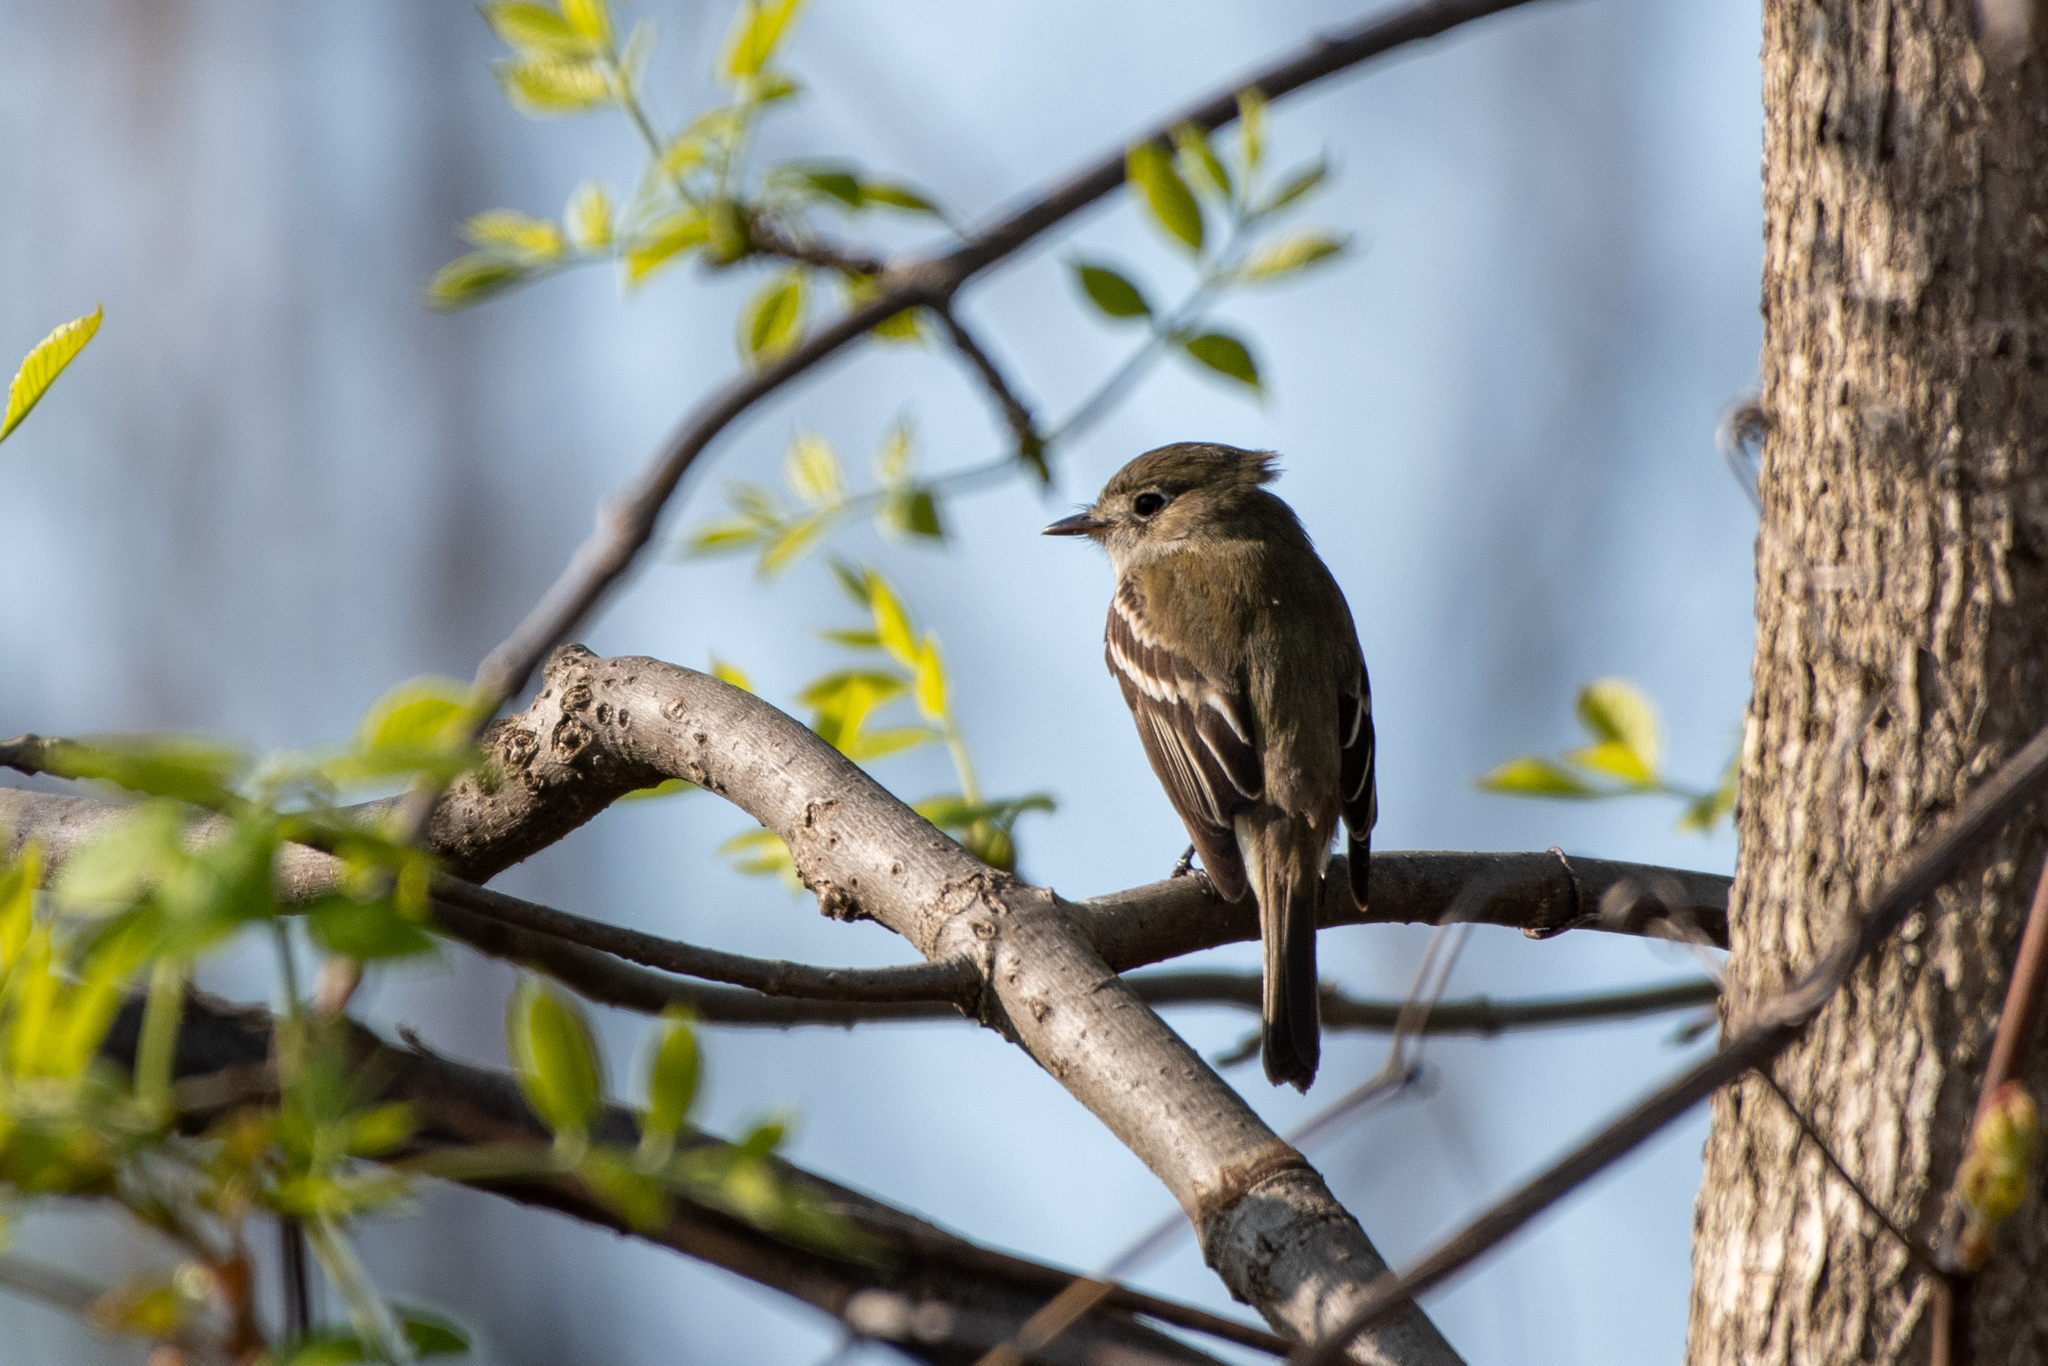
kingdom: Animalia
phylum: Chordata
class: Aves
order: Passeriformes
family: Tyrannidae
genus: Empidonax
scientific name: Empidonax minimus
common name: Least flycatcher
